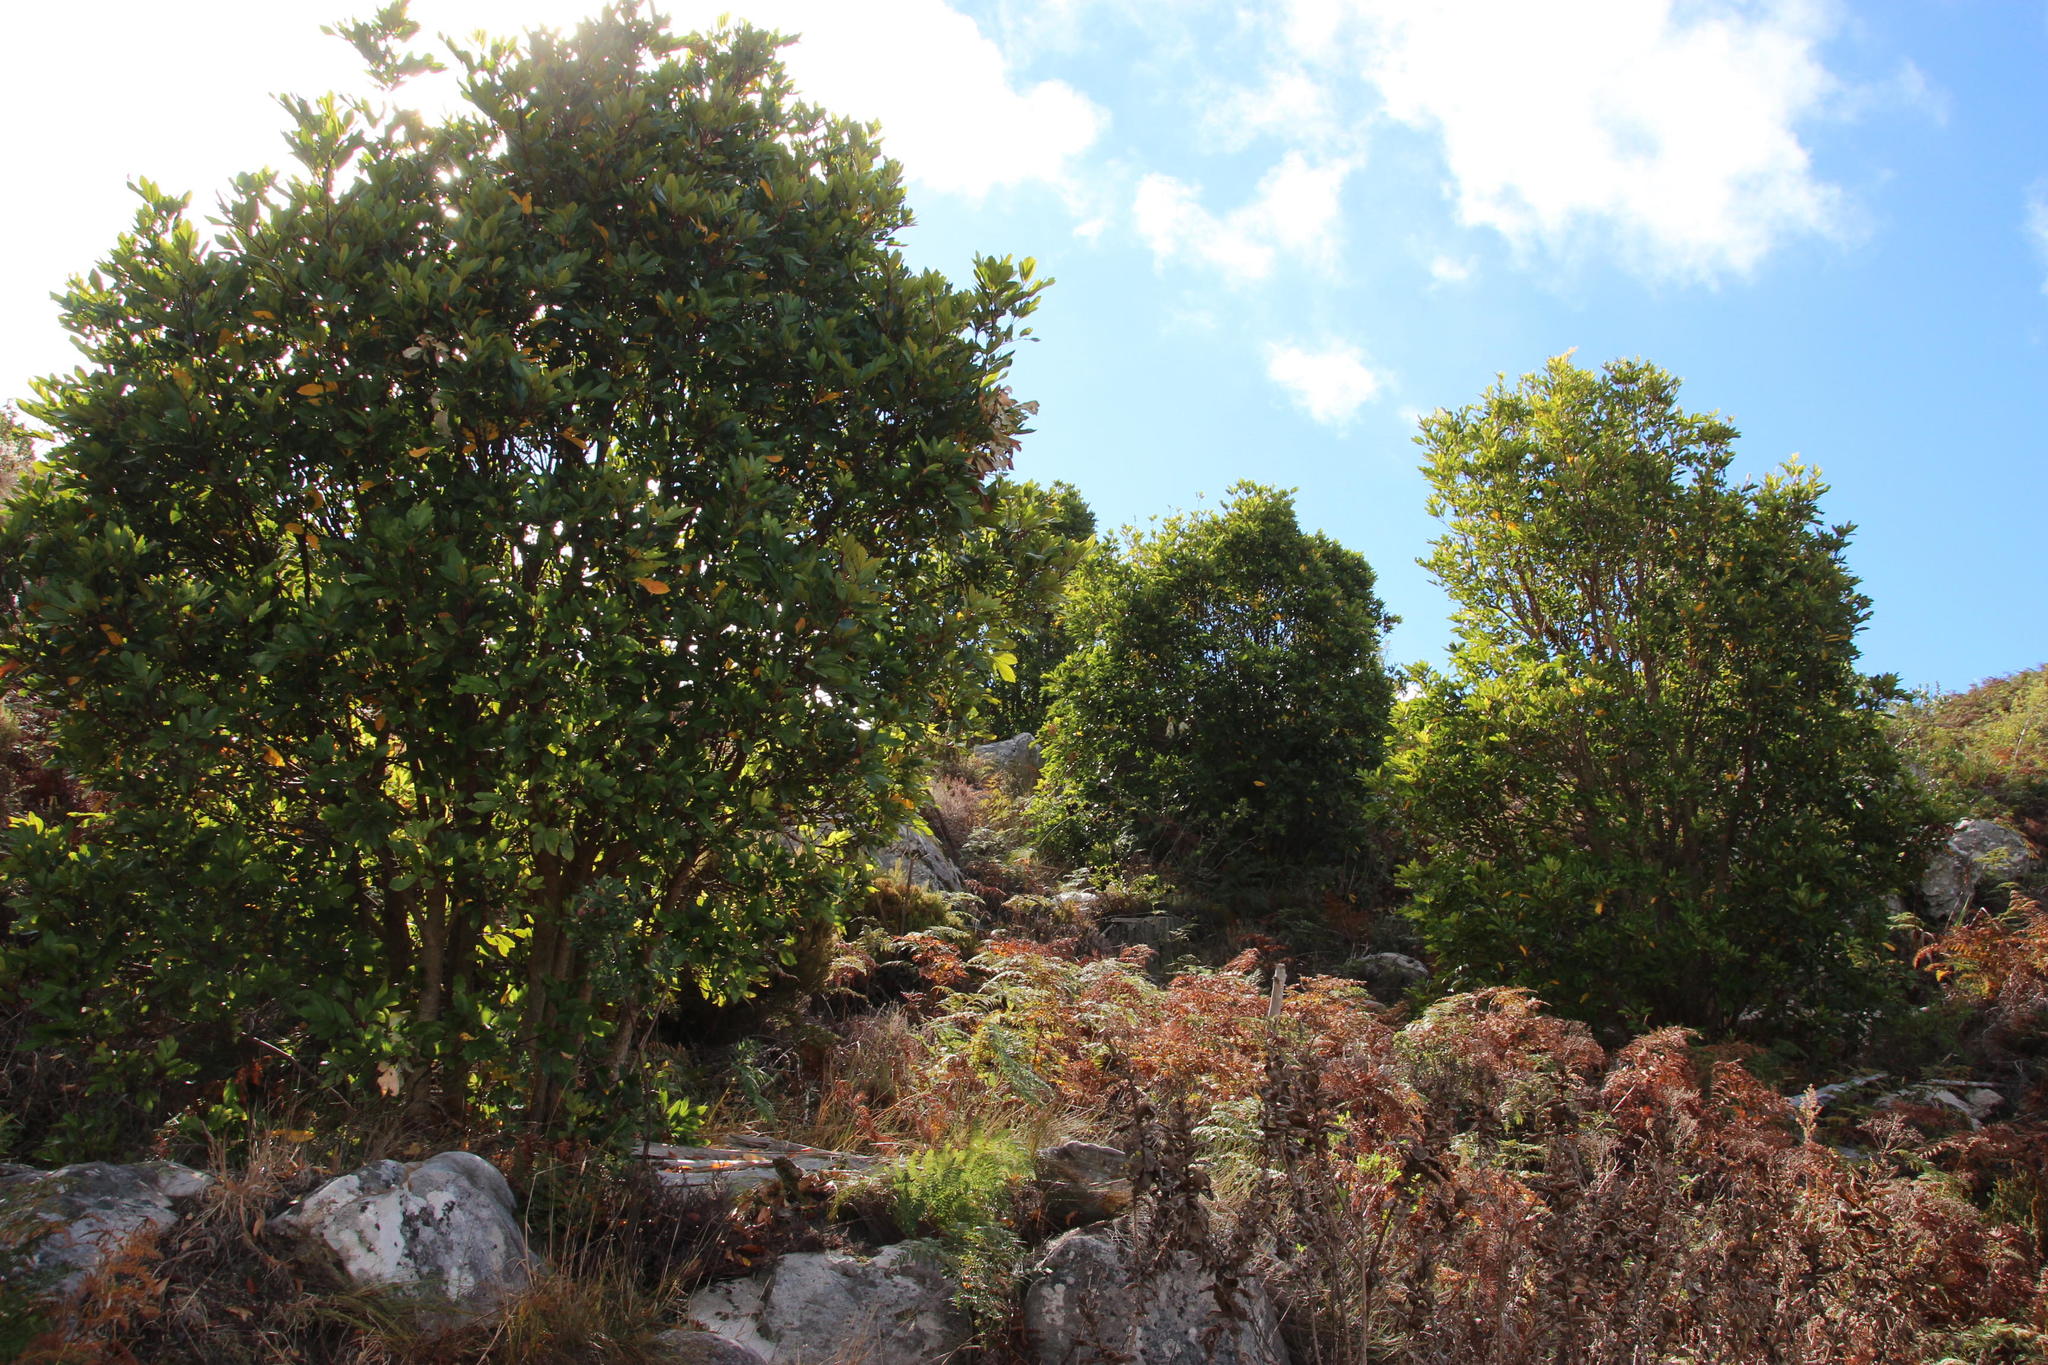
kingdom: Plantae
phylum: Tracheophyta
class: Magnoliopsida
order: Oxalidales
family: Cunoniaceae
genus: Cunonia
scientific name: Cunonia capensis
